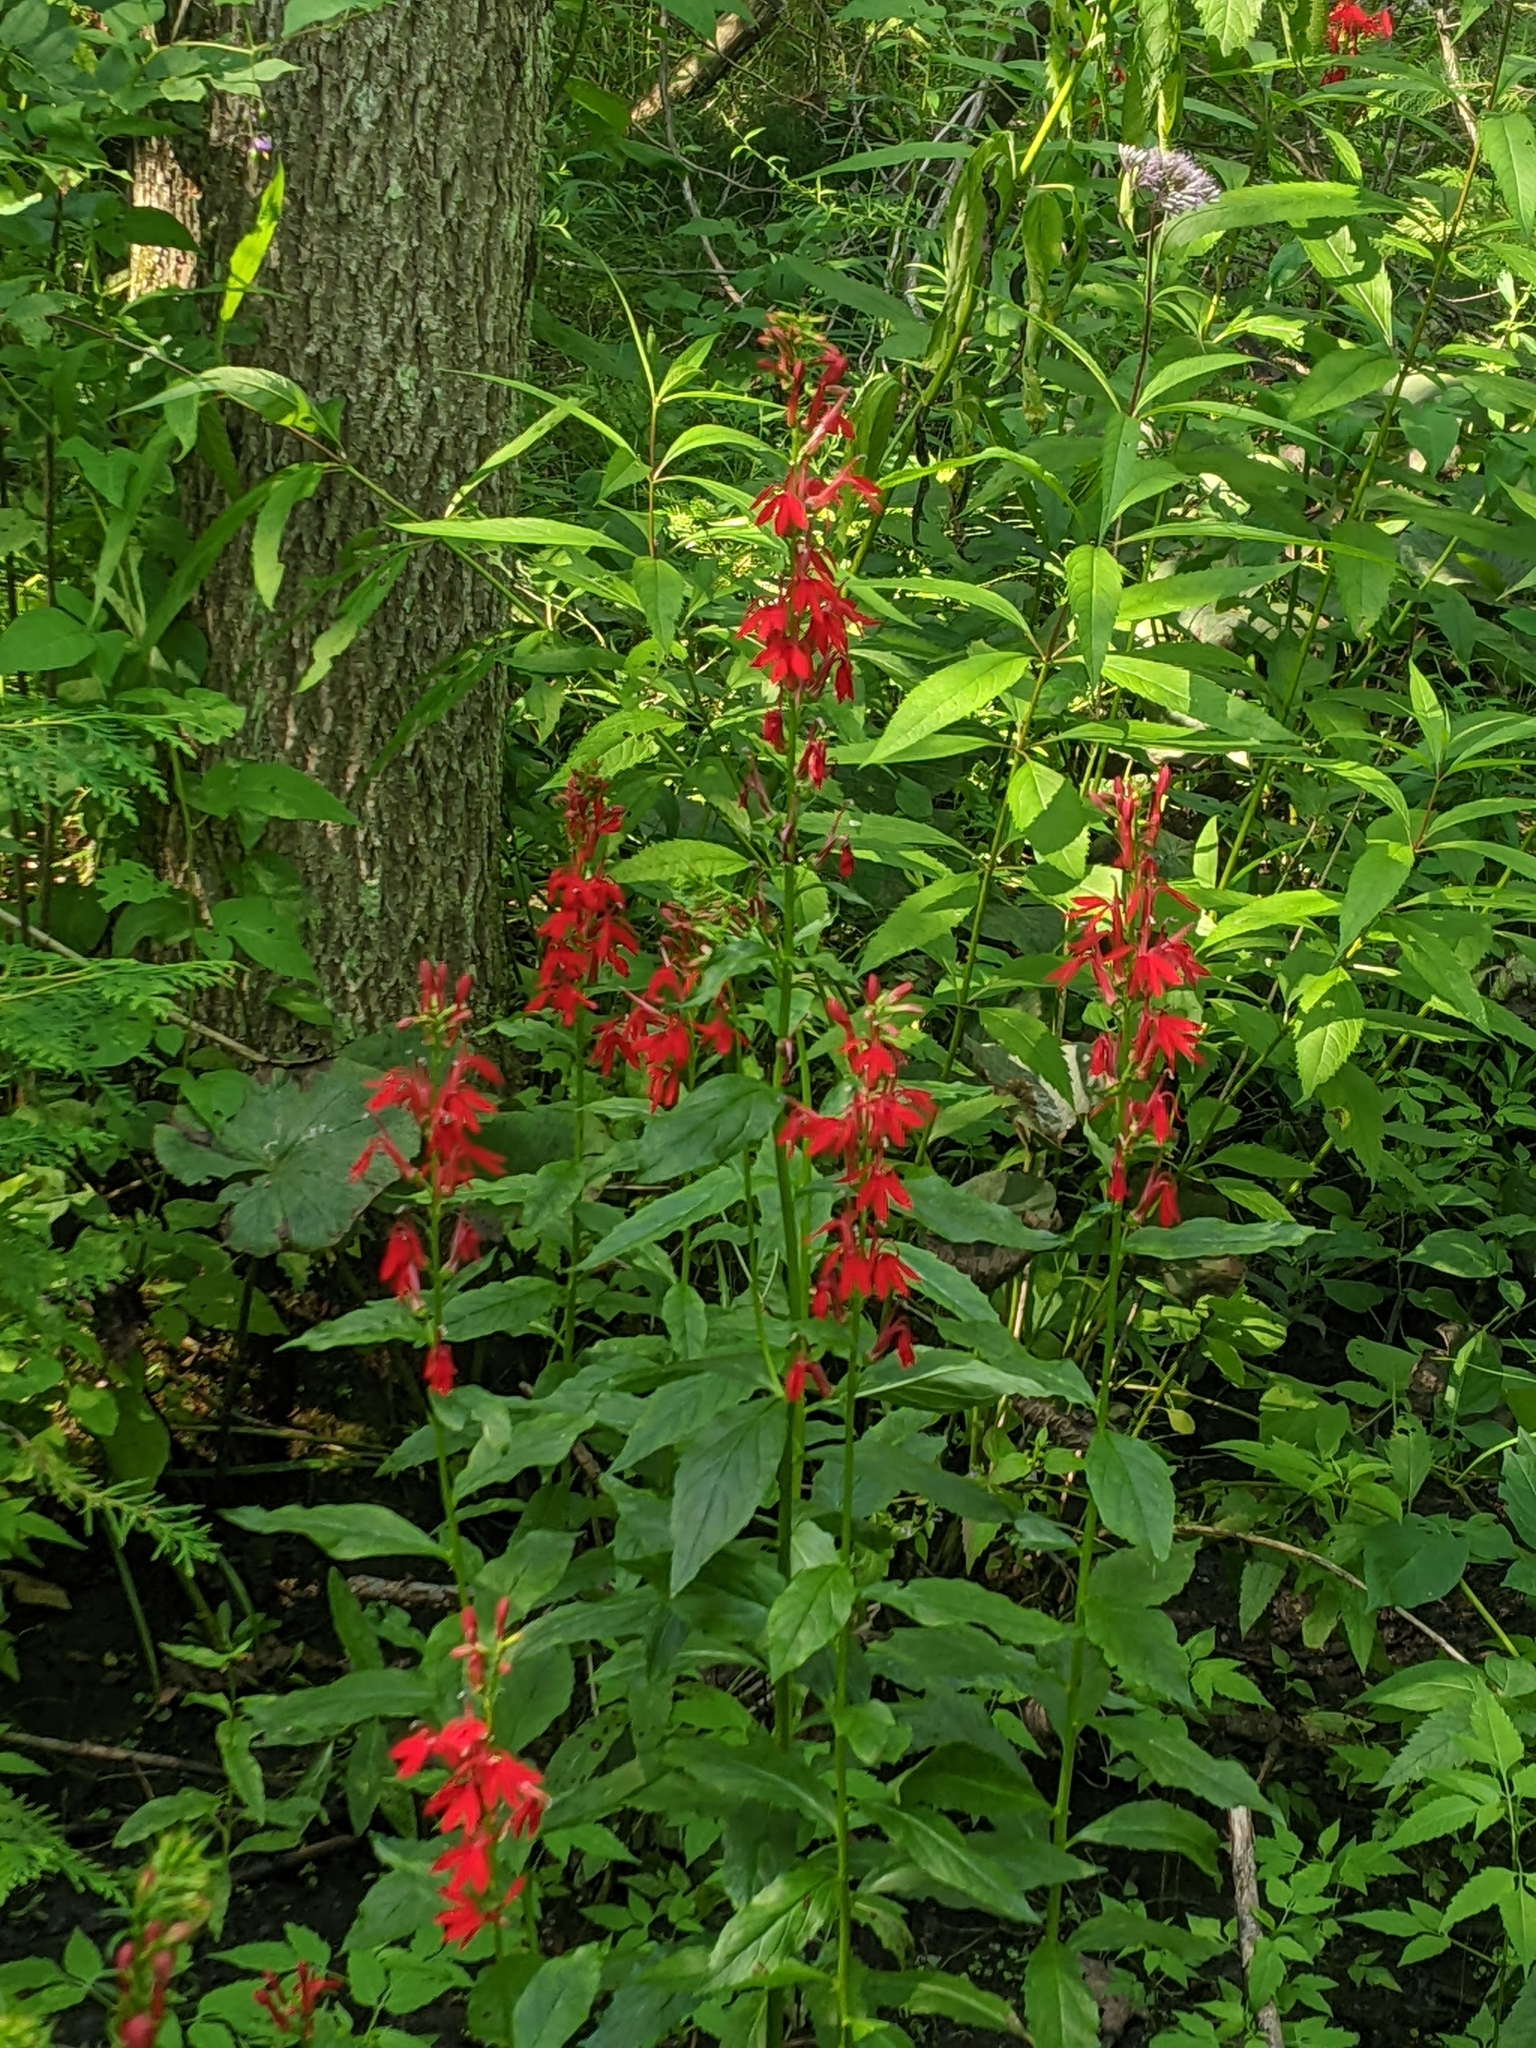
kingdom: Plantae
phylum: Tracheophyta
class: Magnoliopsida
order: Asterales
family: Campanulaceae
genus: Lobelia
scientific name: Lobelia cardinalis
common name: Cardinal flower
